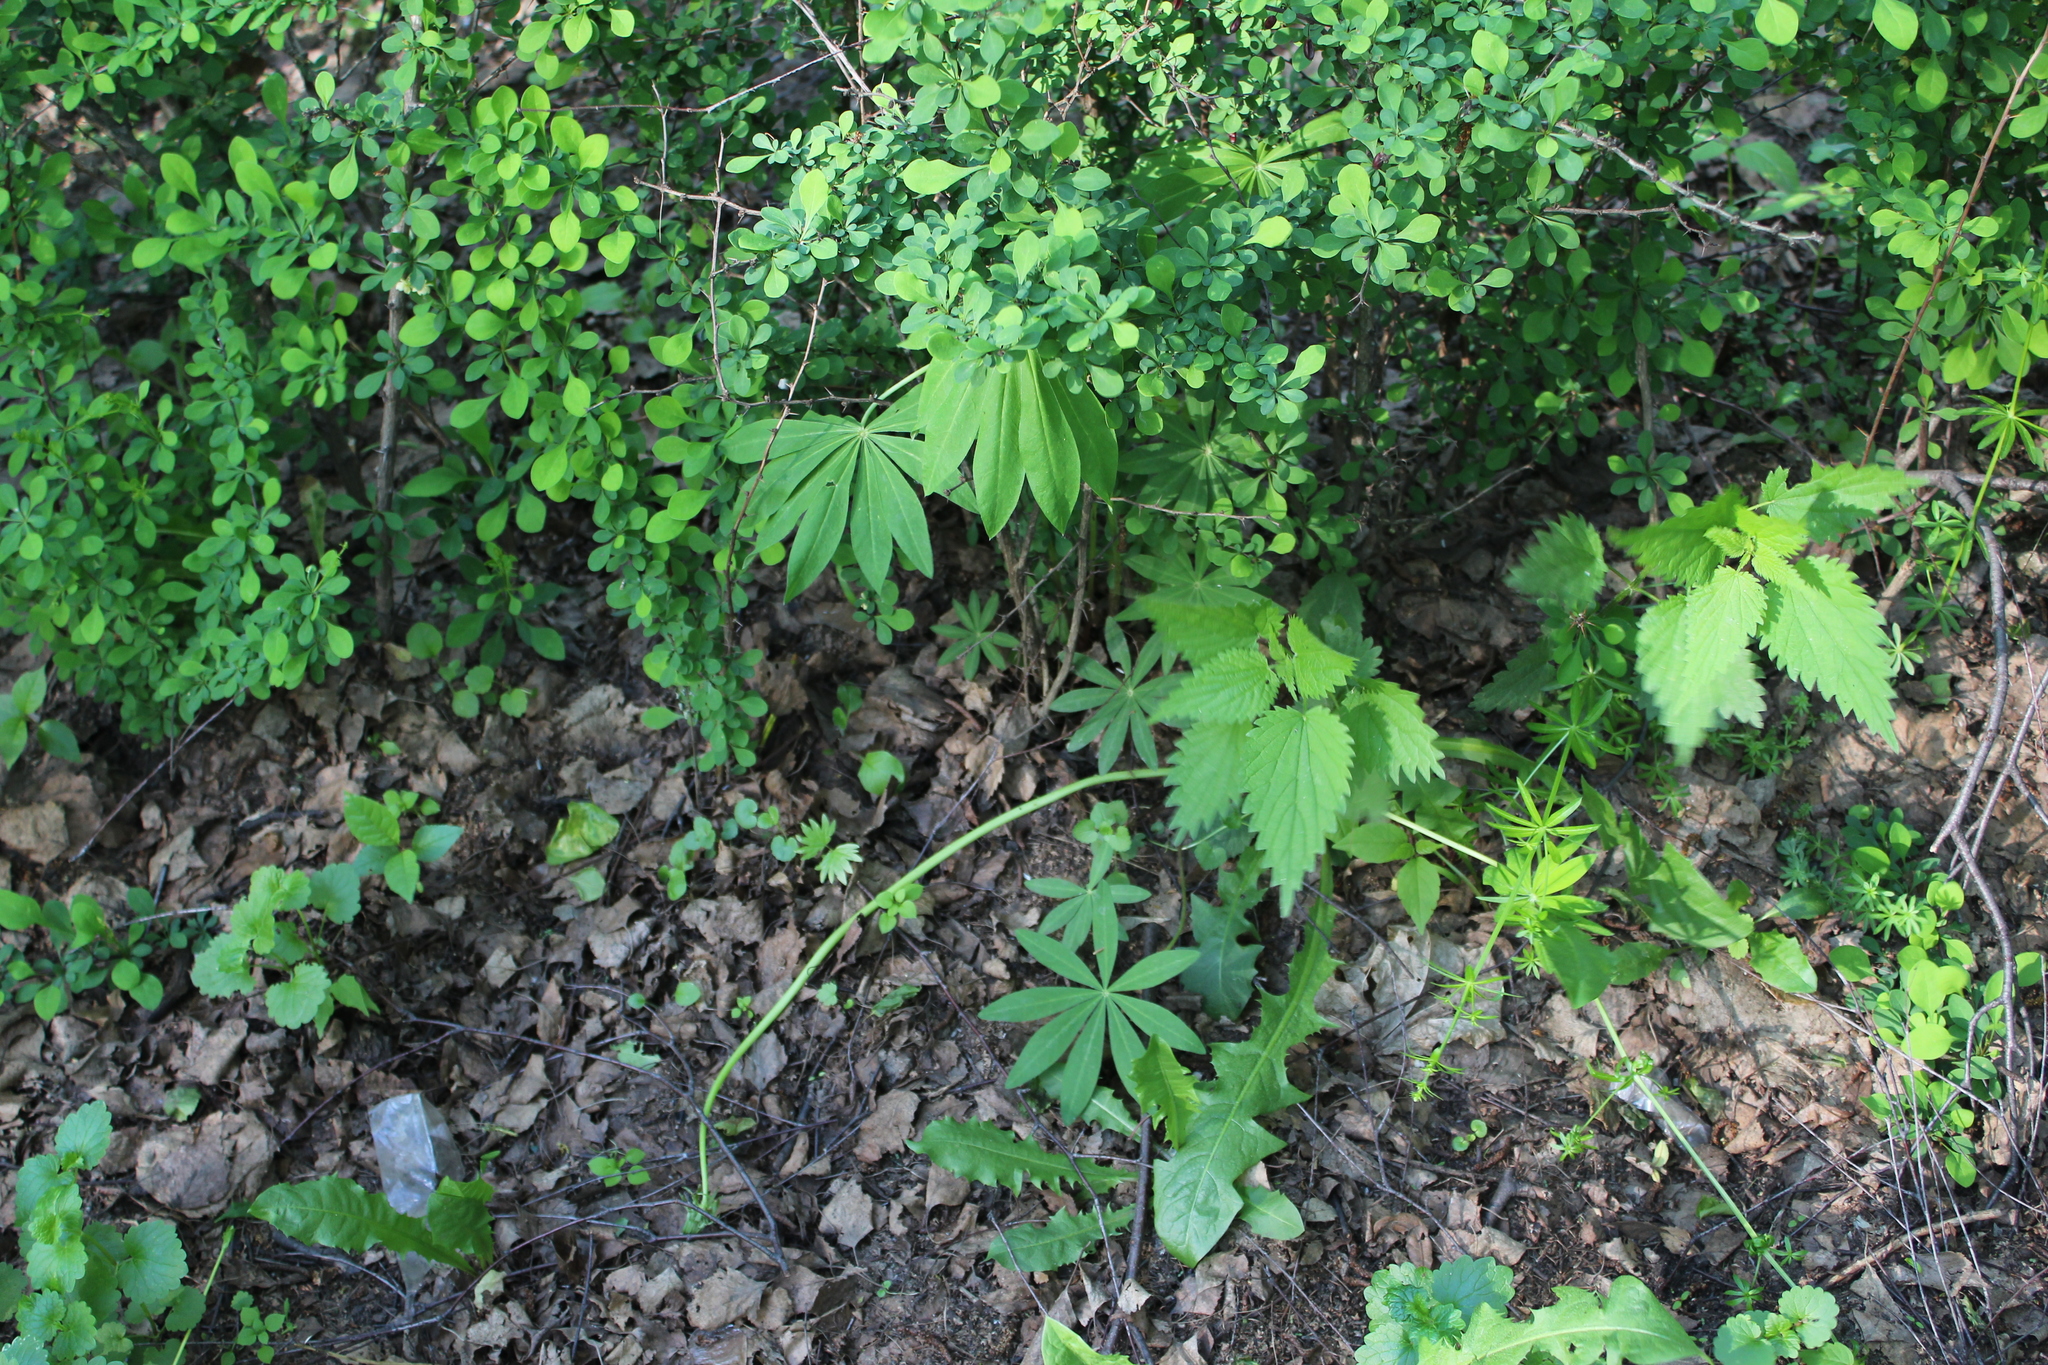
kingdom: Plantae
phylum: Tracheophyta
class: Magnoliopsida
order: Fabales
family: Fabaceae
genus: Lupinus
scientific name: Lupinus polyphyllus
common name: Garden lupin
